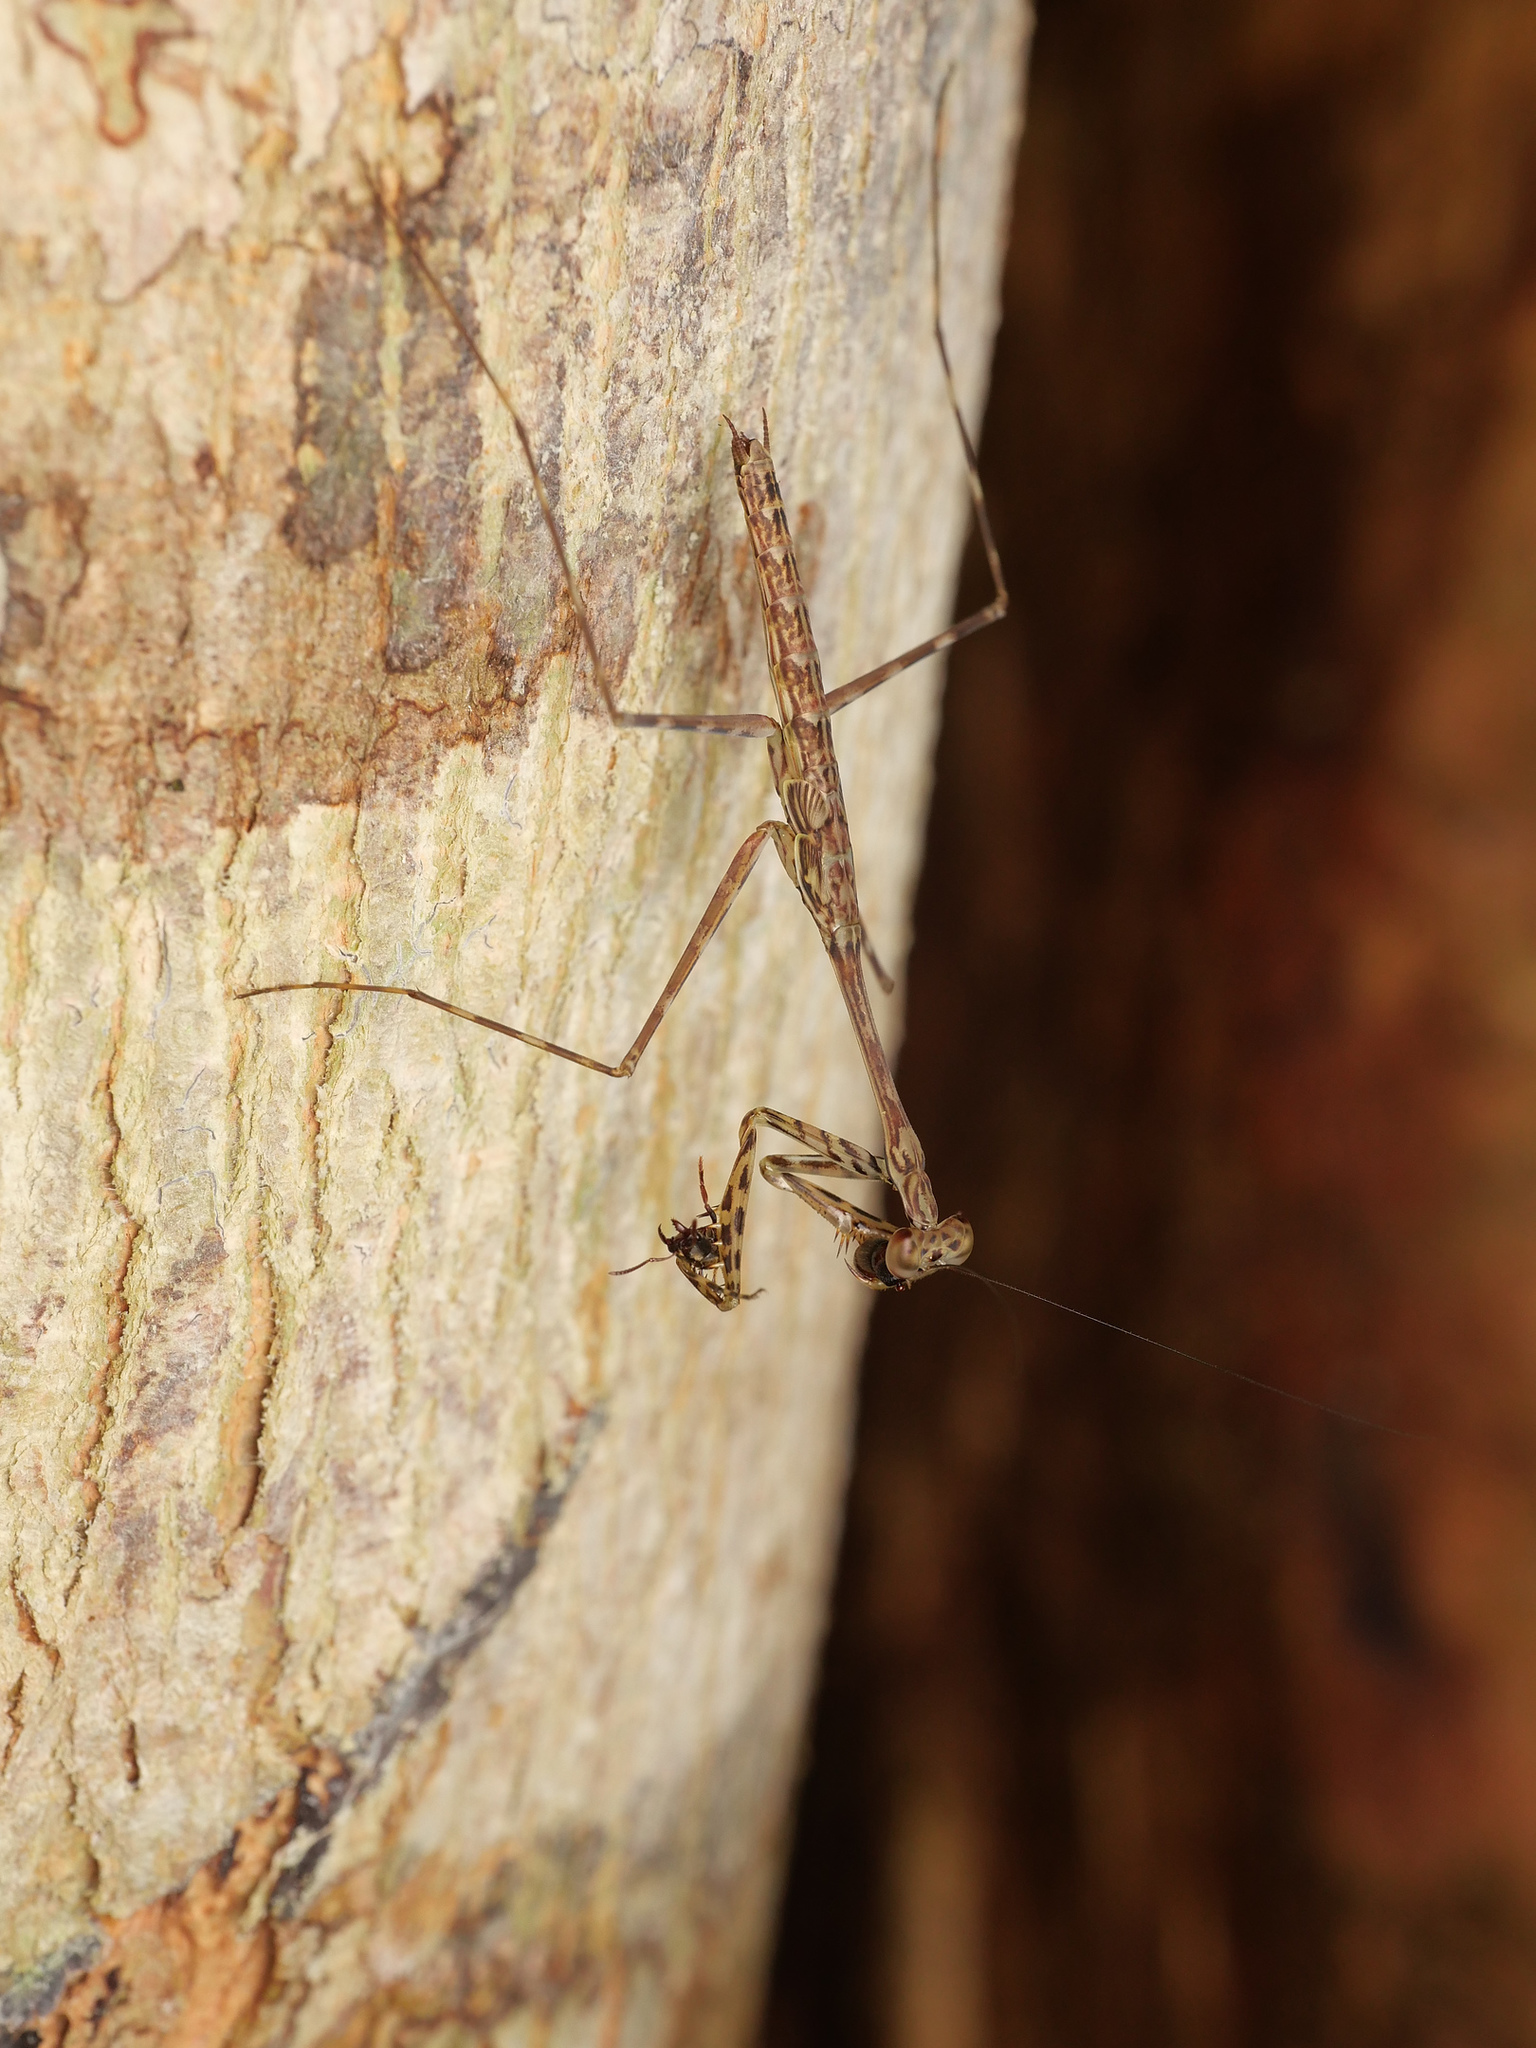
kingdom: Animalia
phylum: Arthropoda
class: Insecta
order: Mantodea
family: Nanomantidae
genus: Stenomantis
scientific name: Stenomantis novaeguineae
